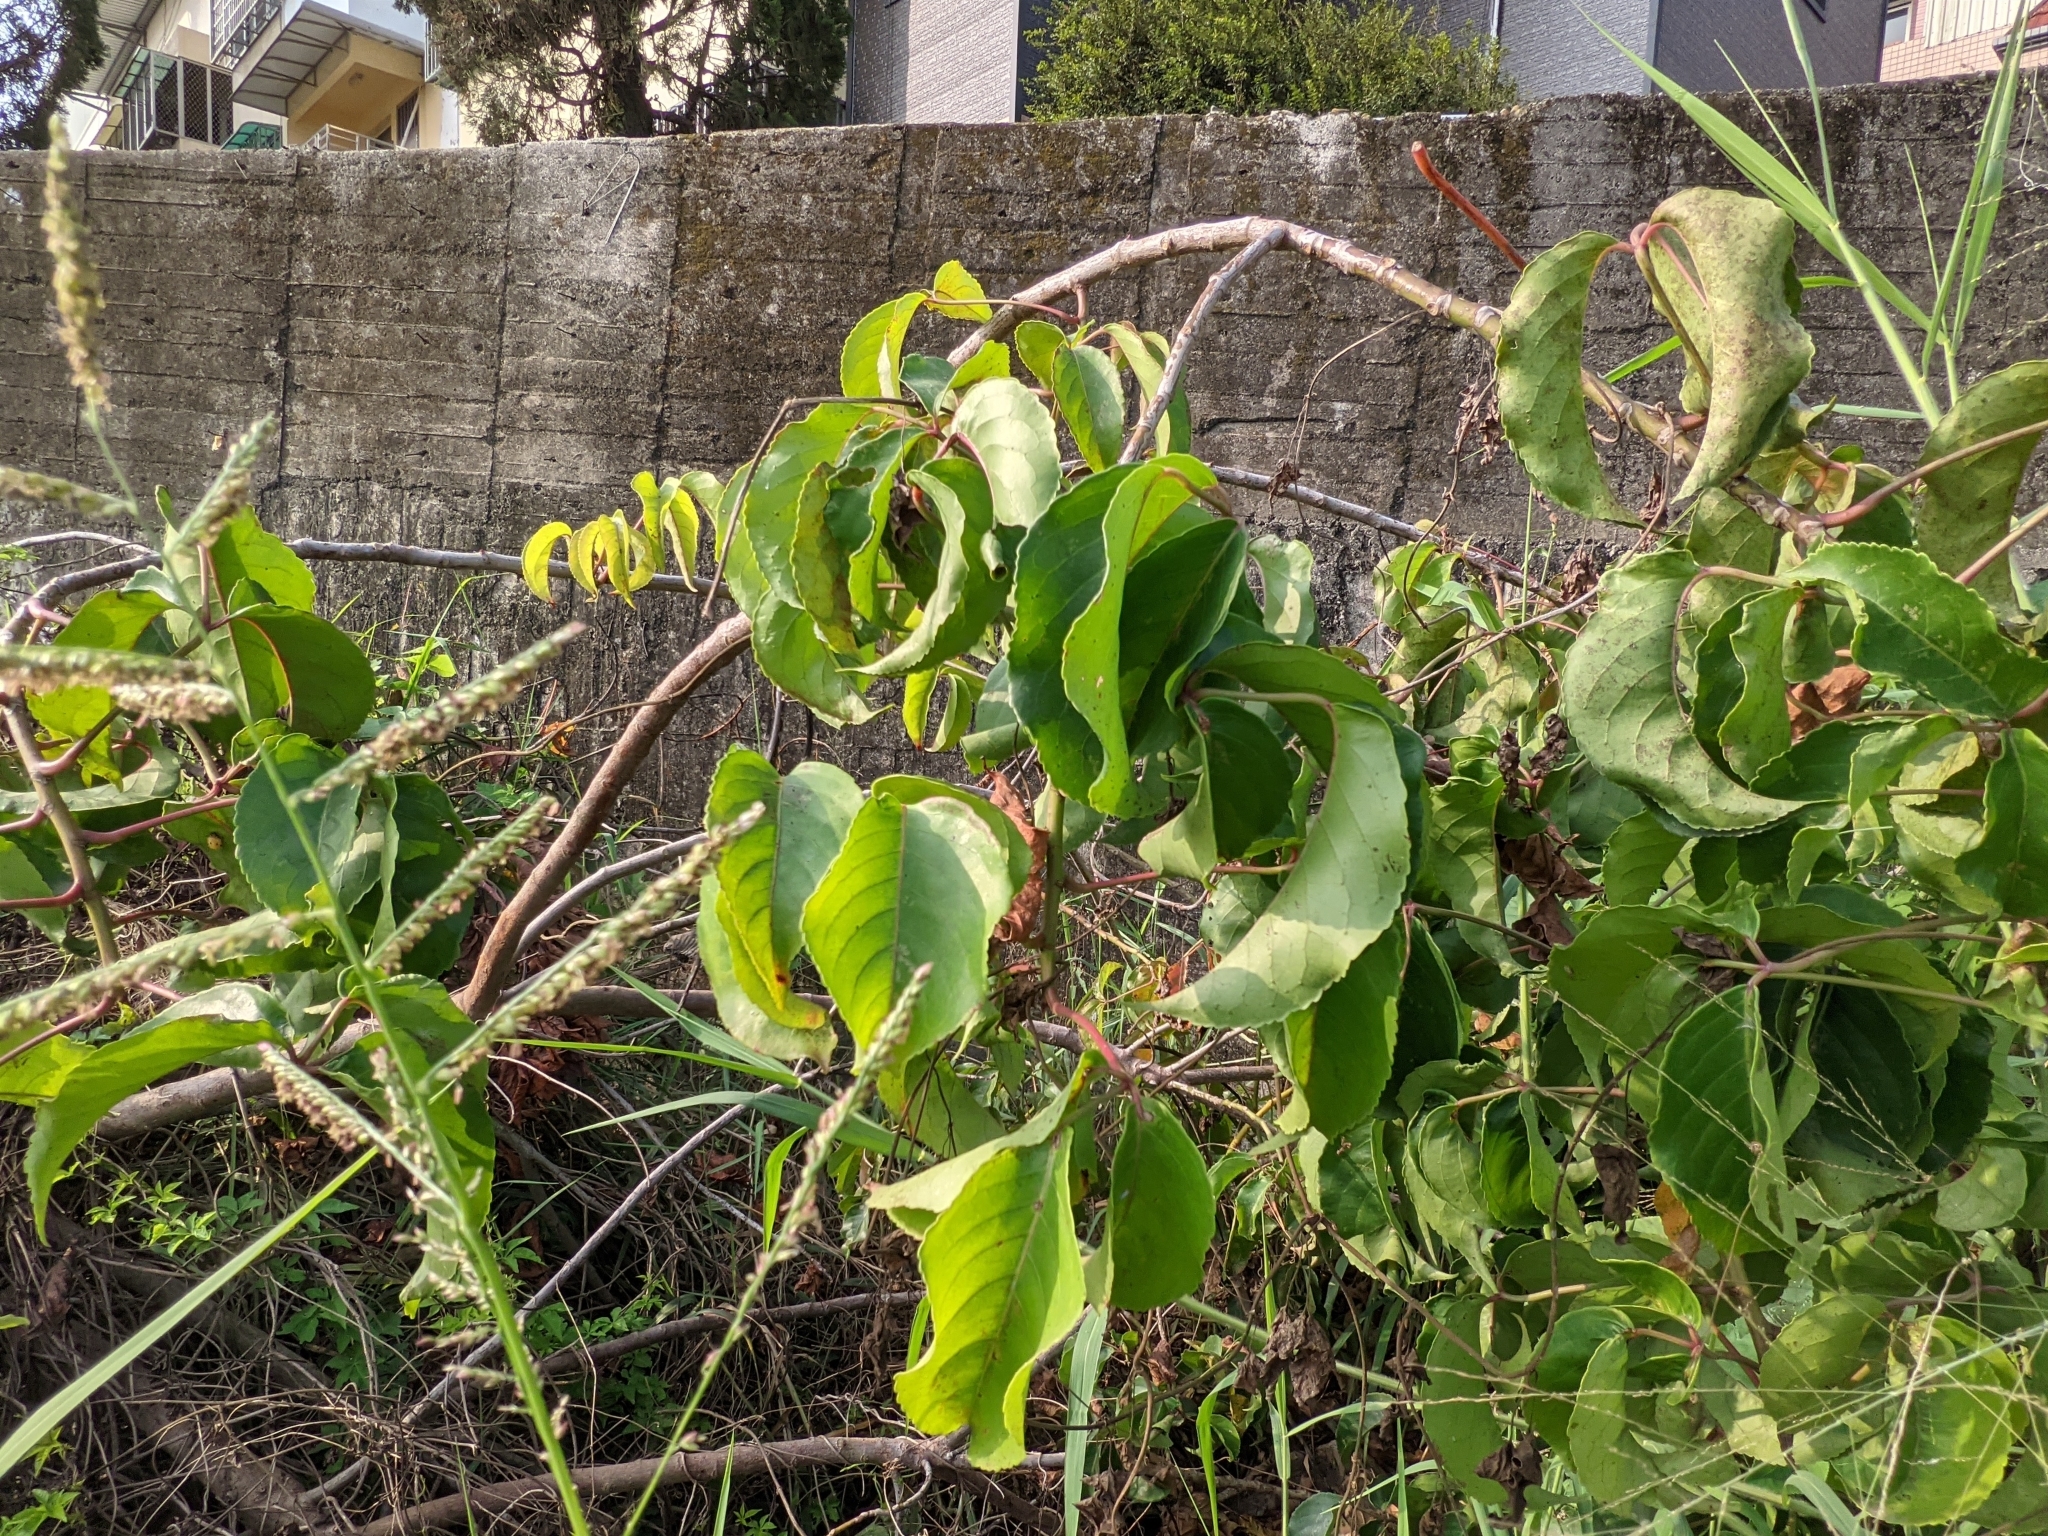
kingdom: Plantae
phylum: Tracheophyta
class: Magnoliopsida
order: Caryophyllales
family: Basellaceae
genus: Anredera
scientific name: Anredera cordifolia
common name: Heartleaf madeiravine
